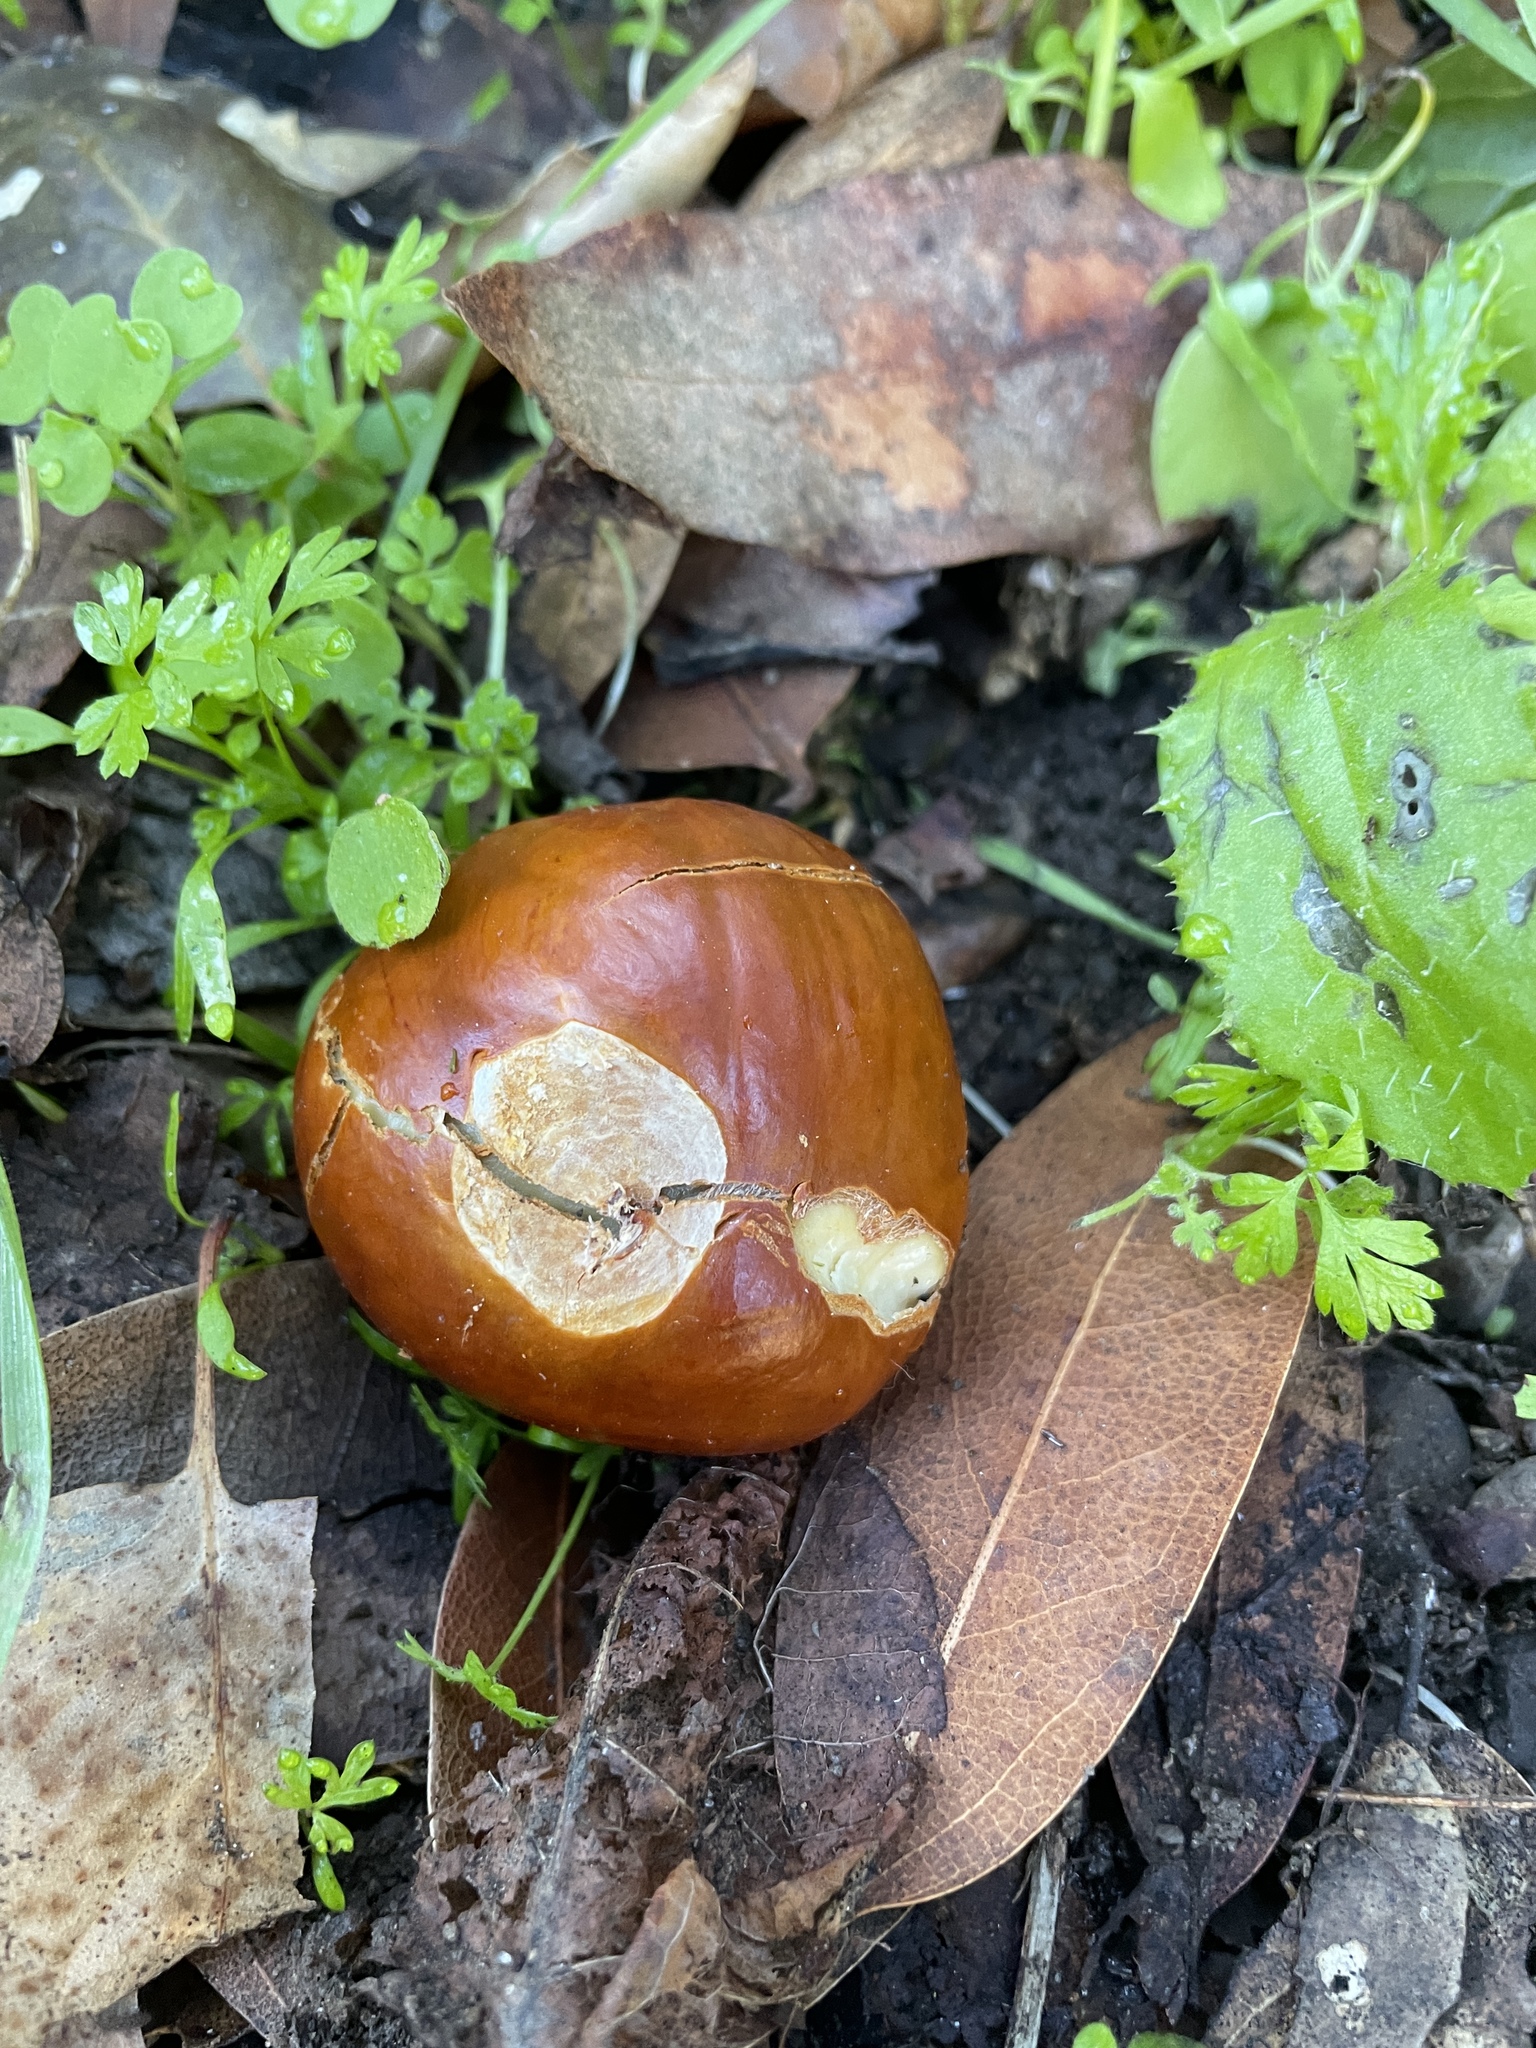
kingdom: Plantae
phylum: Tracheophyta
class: Magnoliopsida
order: Sapindales
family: Sapindaceae
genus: Aesculus
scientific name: Aesculus californica
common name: California buckeye
